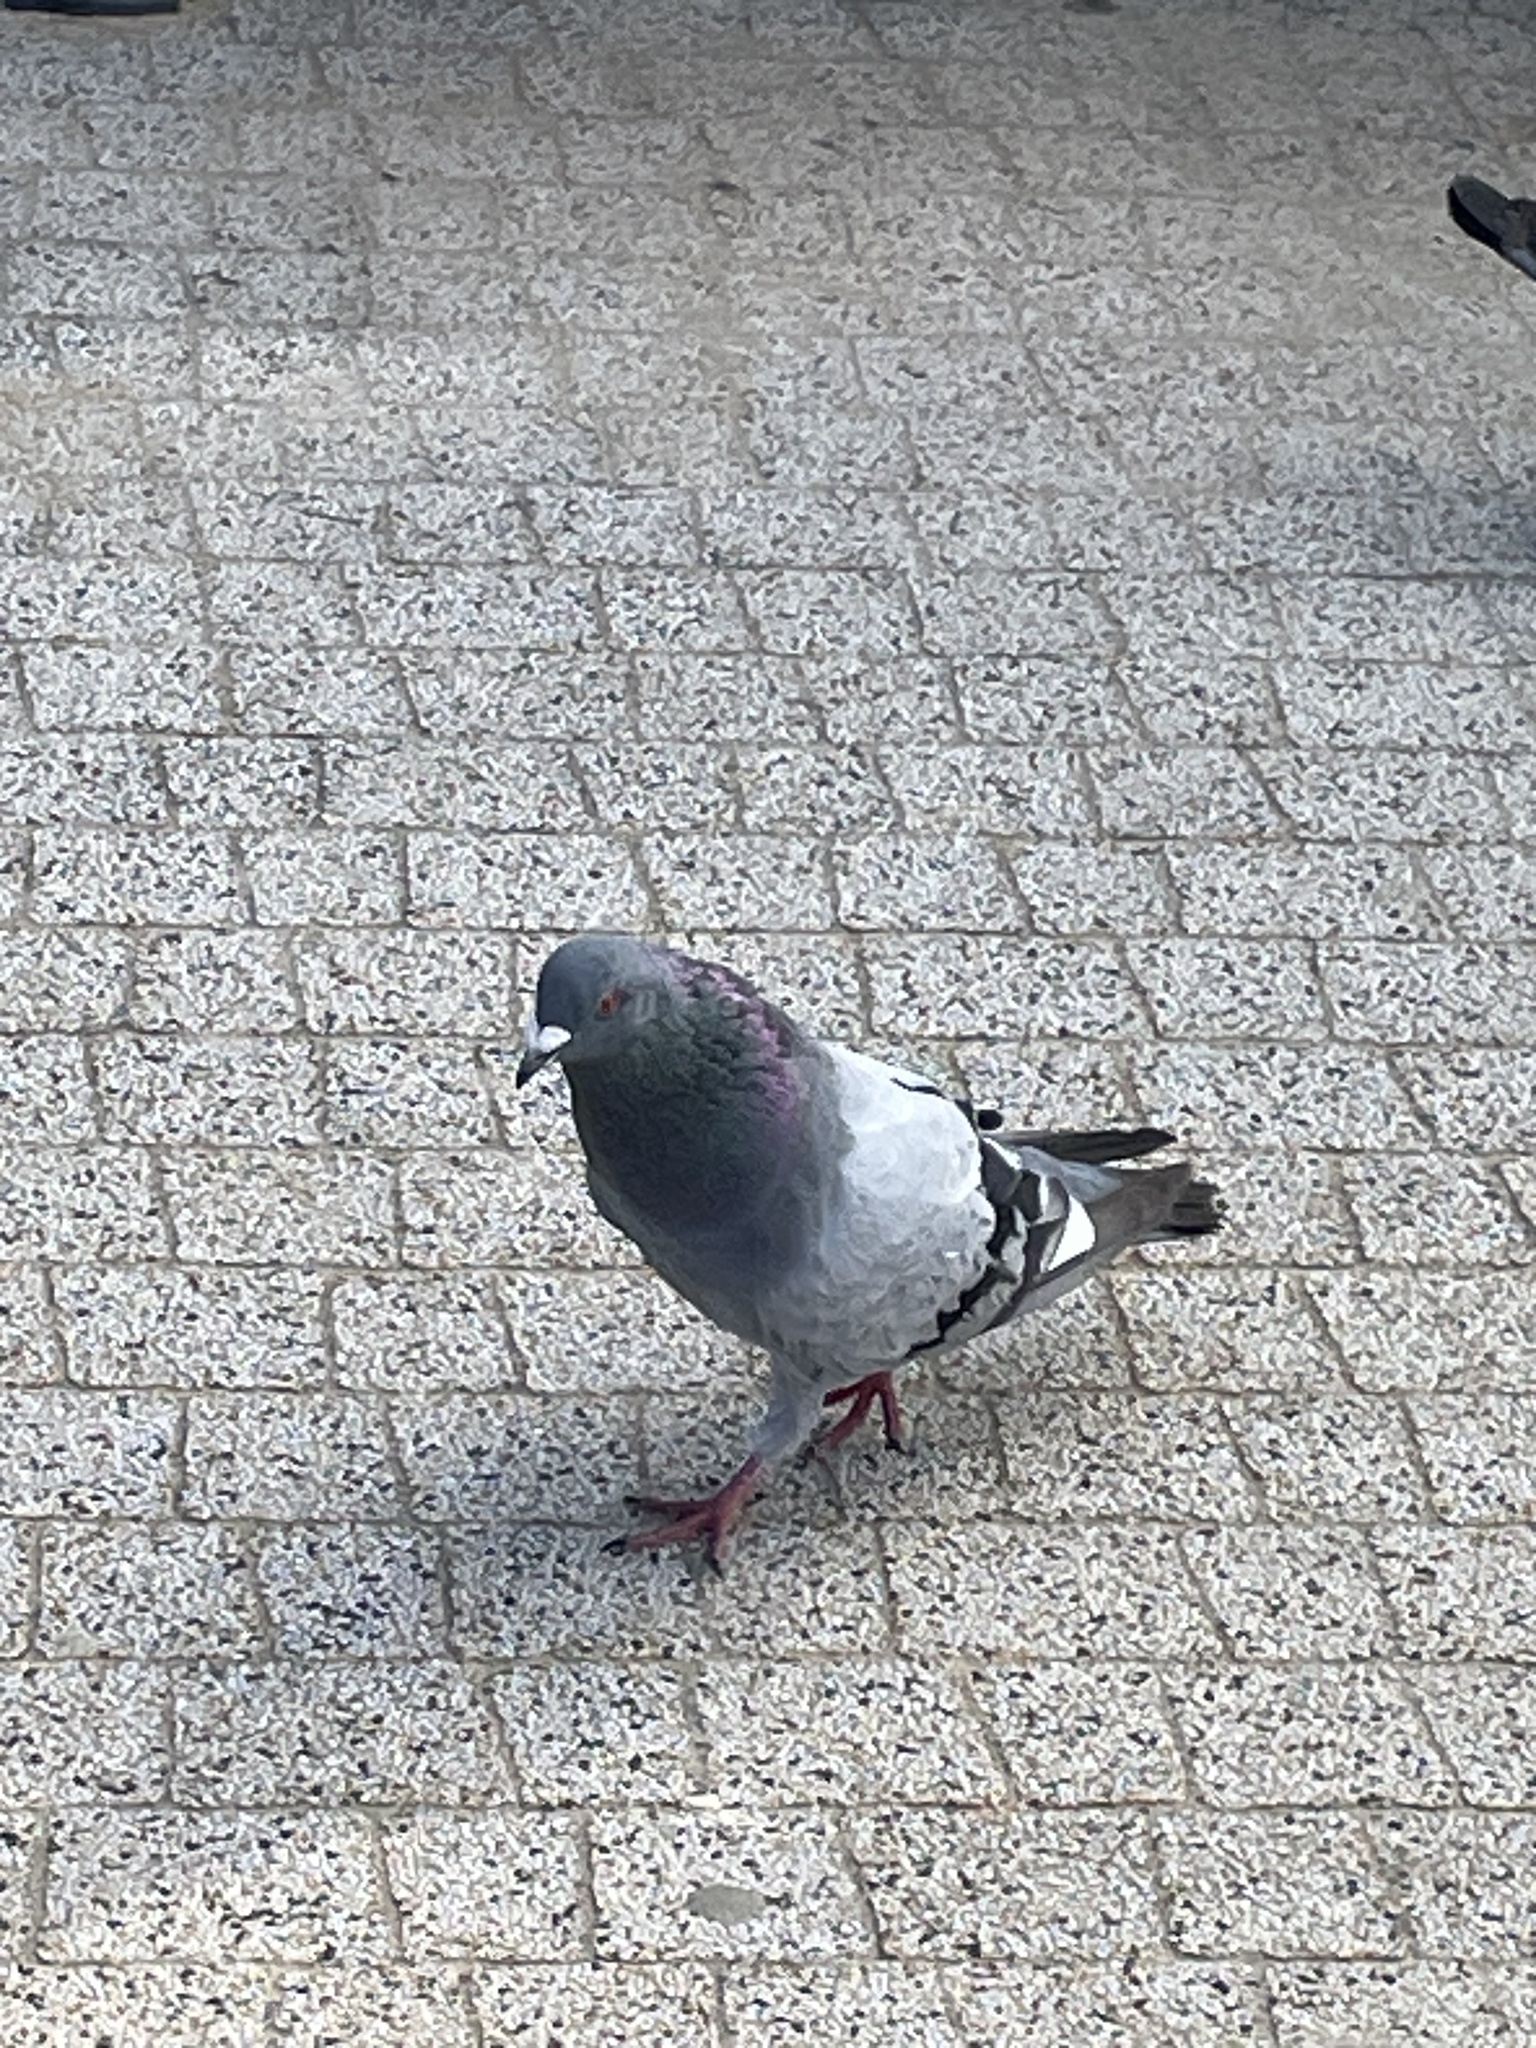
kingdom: Animalia
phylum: Chordata
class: Aves
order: Columbiformes
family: Columbidae
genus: Columba
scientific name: Columba livia
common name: Rock pigeon
